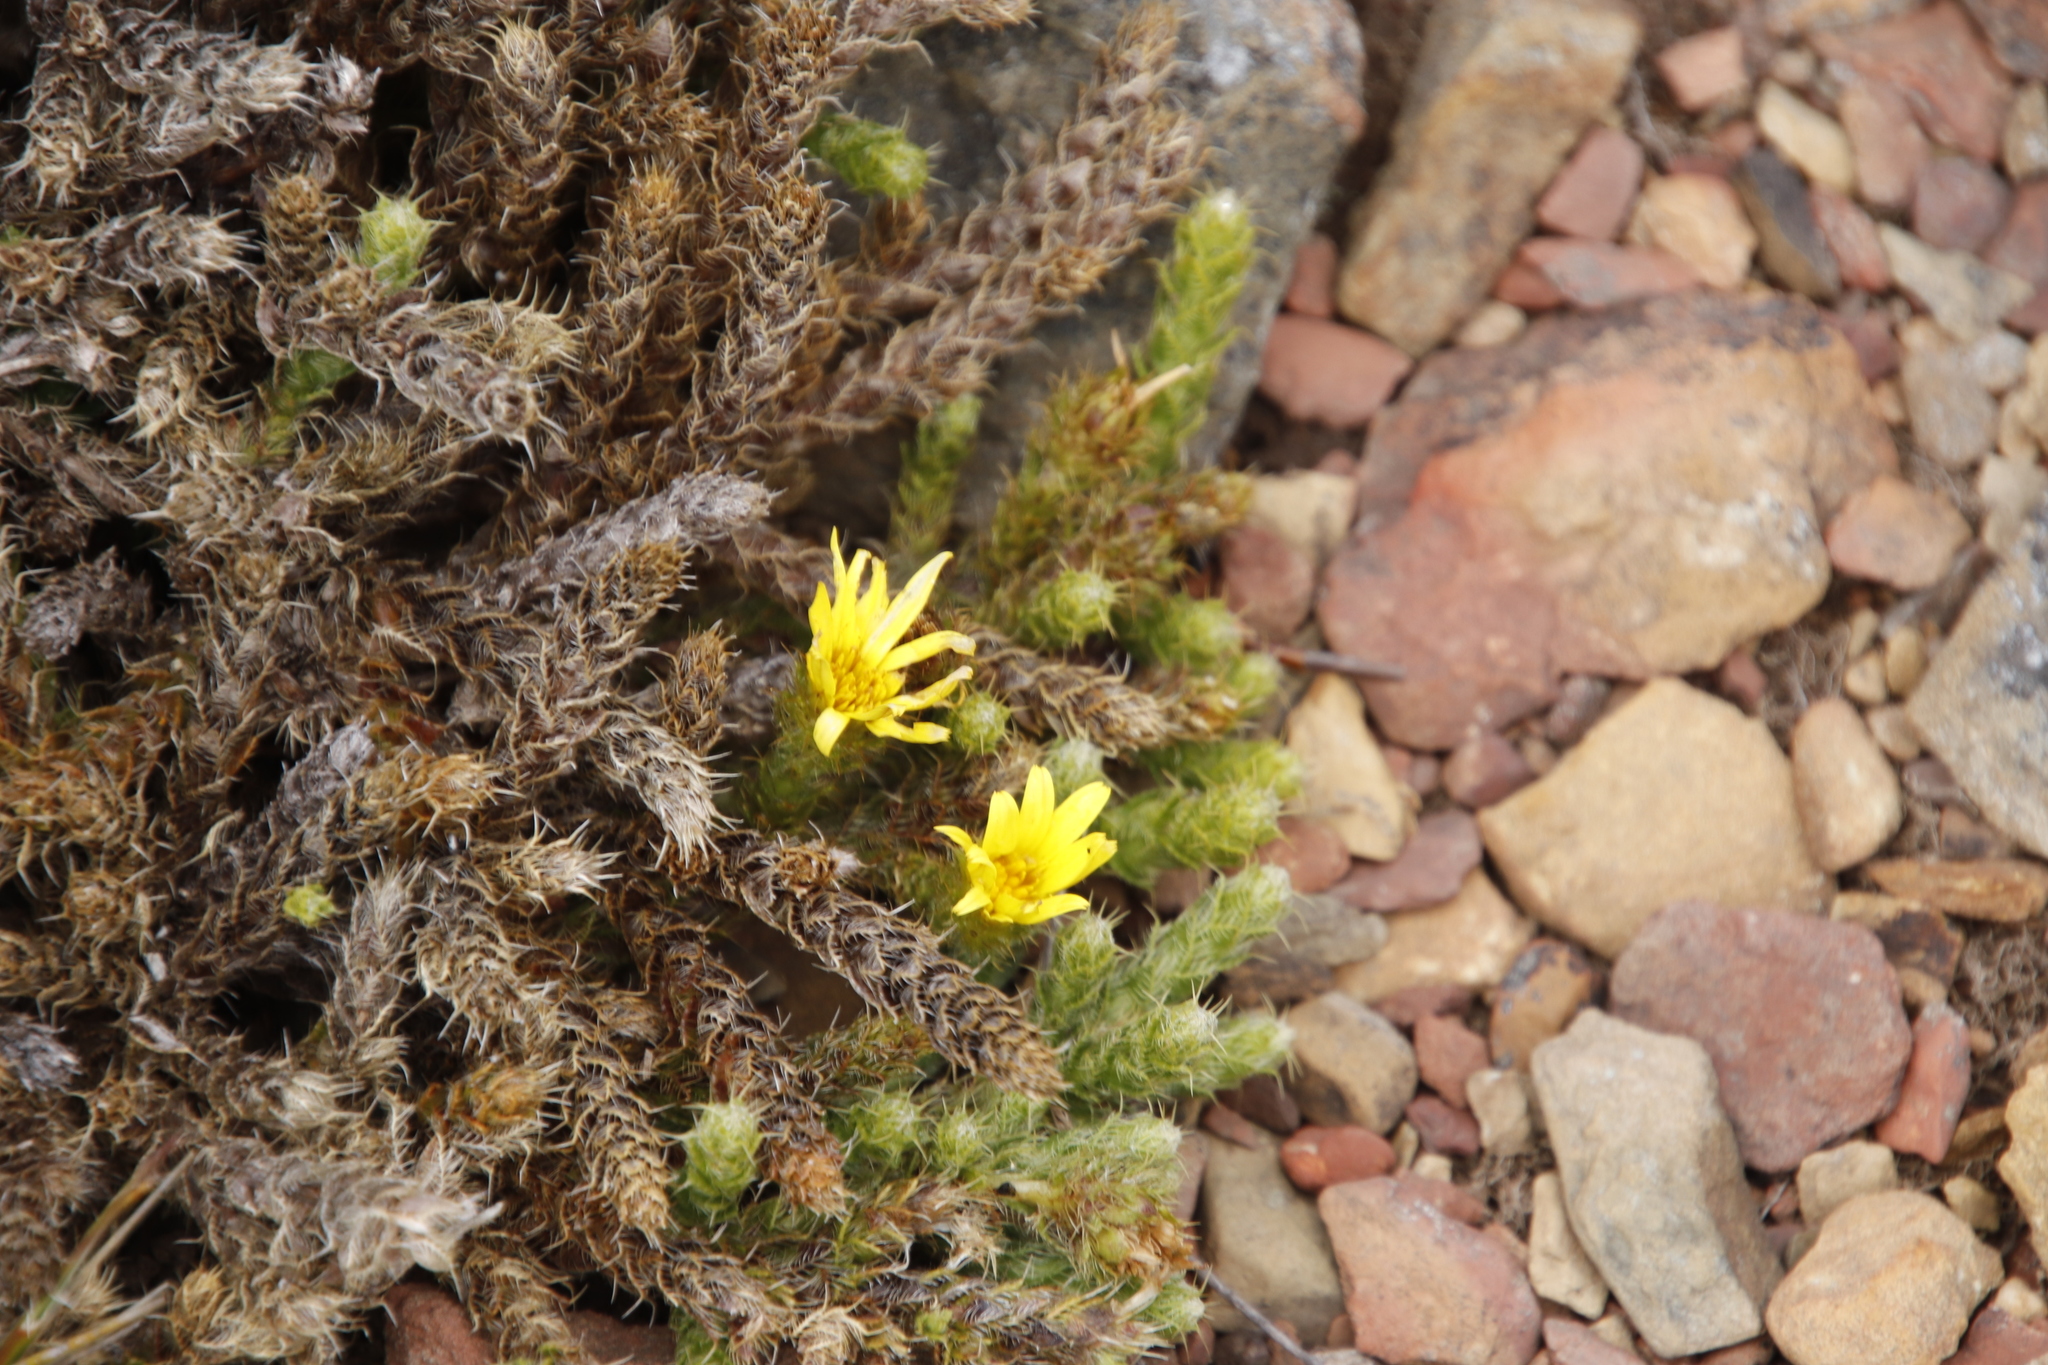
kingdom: Plantae
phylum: Tracheophyta
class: Magnoliopsida
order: Asterales
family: Asteraceae
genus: Cullumia
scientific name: Cullumia reticulata
